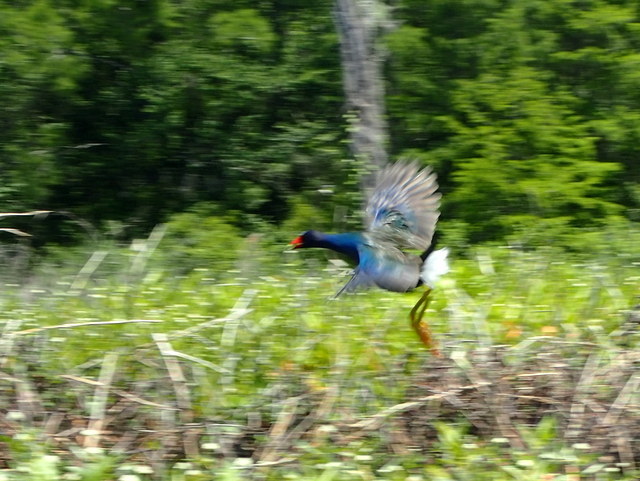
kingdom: Animalia
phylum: Chordata
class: Aves
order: Gruiformes
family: Rallidae
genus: Porphyrio
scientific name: Porphyrio martinica
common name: Purple gallinule
